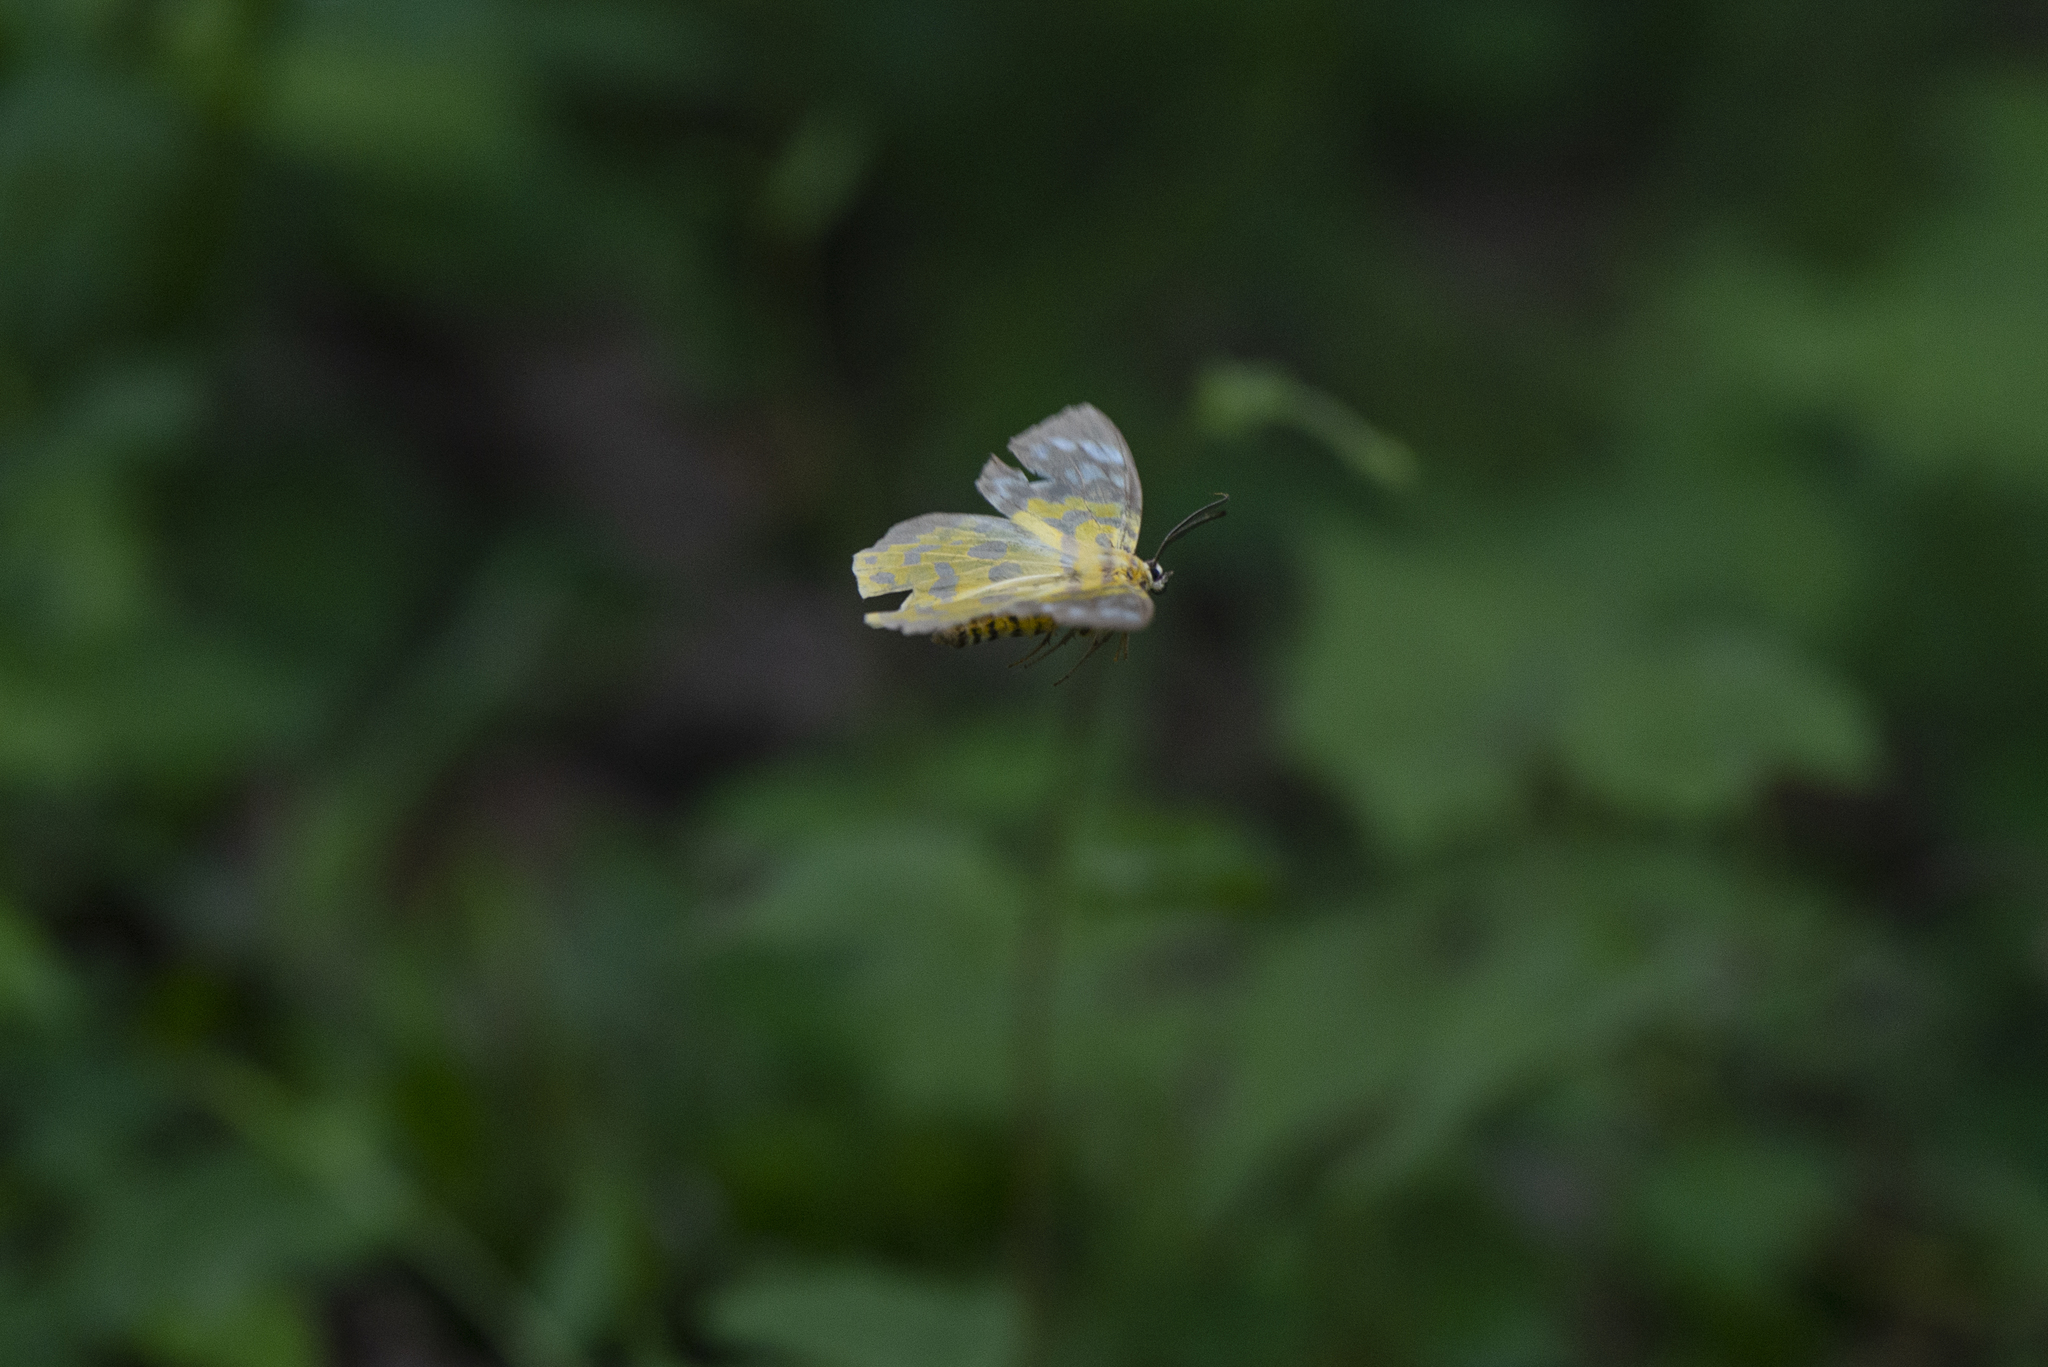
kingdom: Animalia
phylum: Arthropoda
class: Insecta
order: Lepidoptera
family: Geometridae
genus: Dysphania
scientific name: Dysphania militaris
